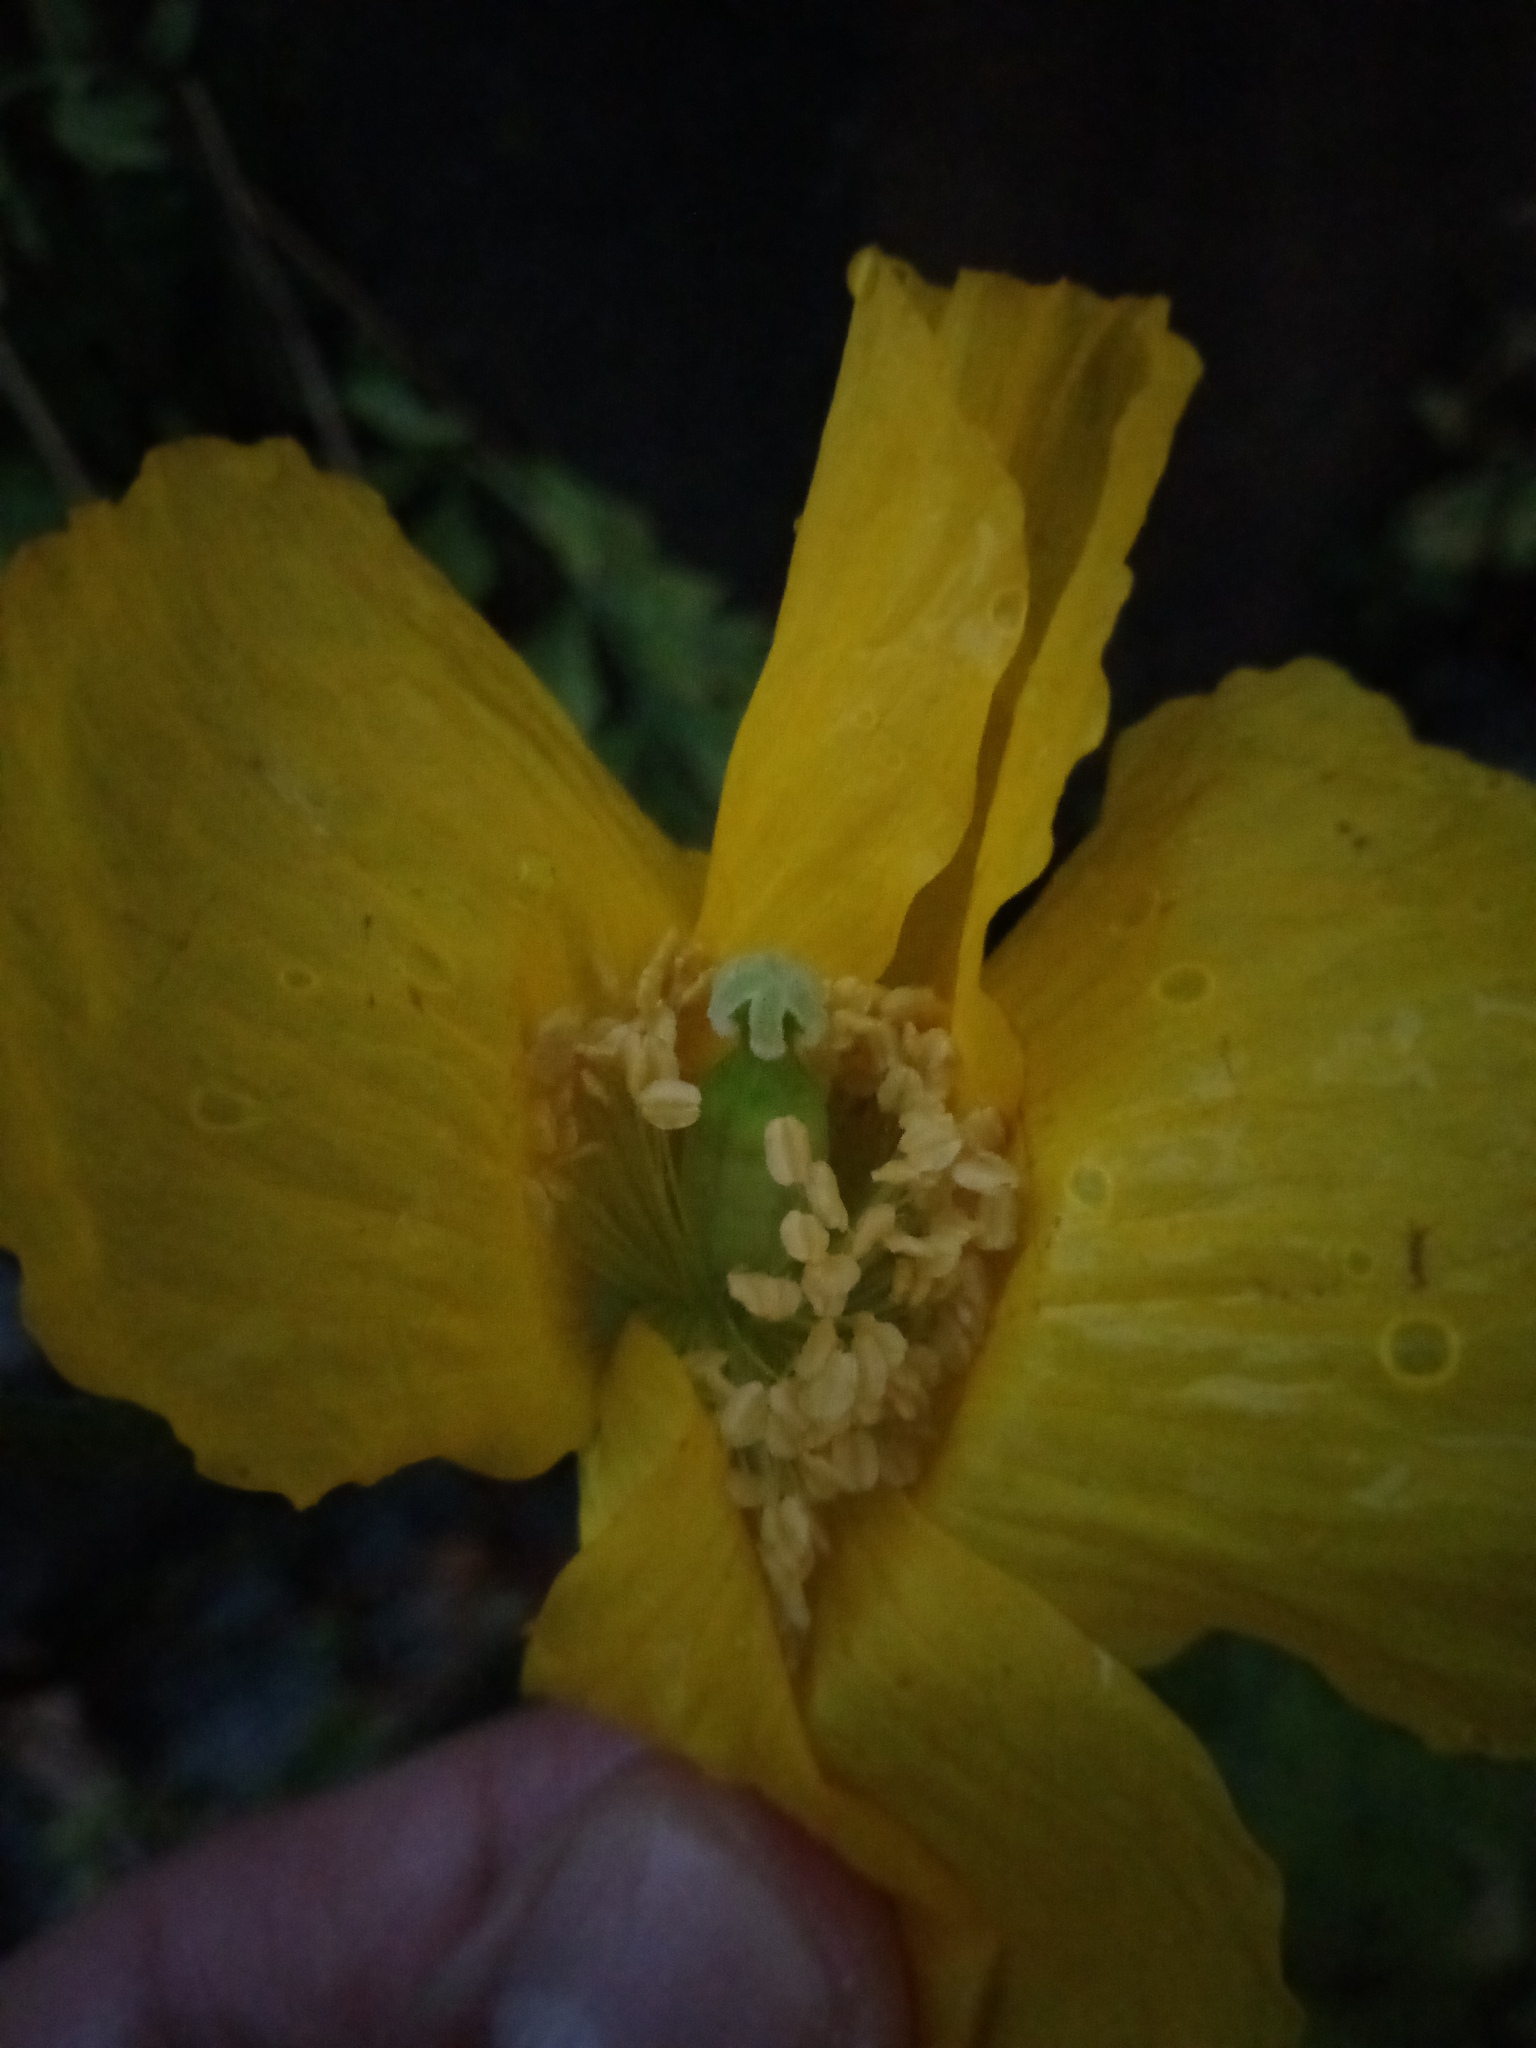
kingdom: Plantae
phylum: Tracheophyta
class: Magnoliopsida
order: Ranunculales
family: Papaveraceae
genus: Papaver
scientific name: Papaver cambricum
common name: Poppy
